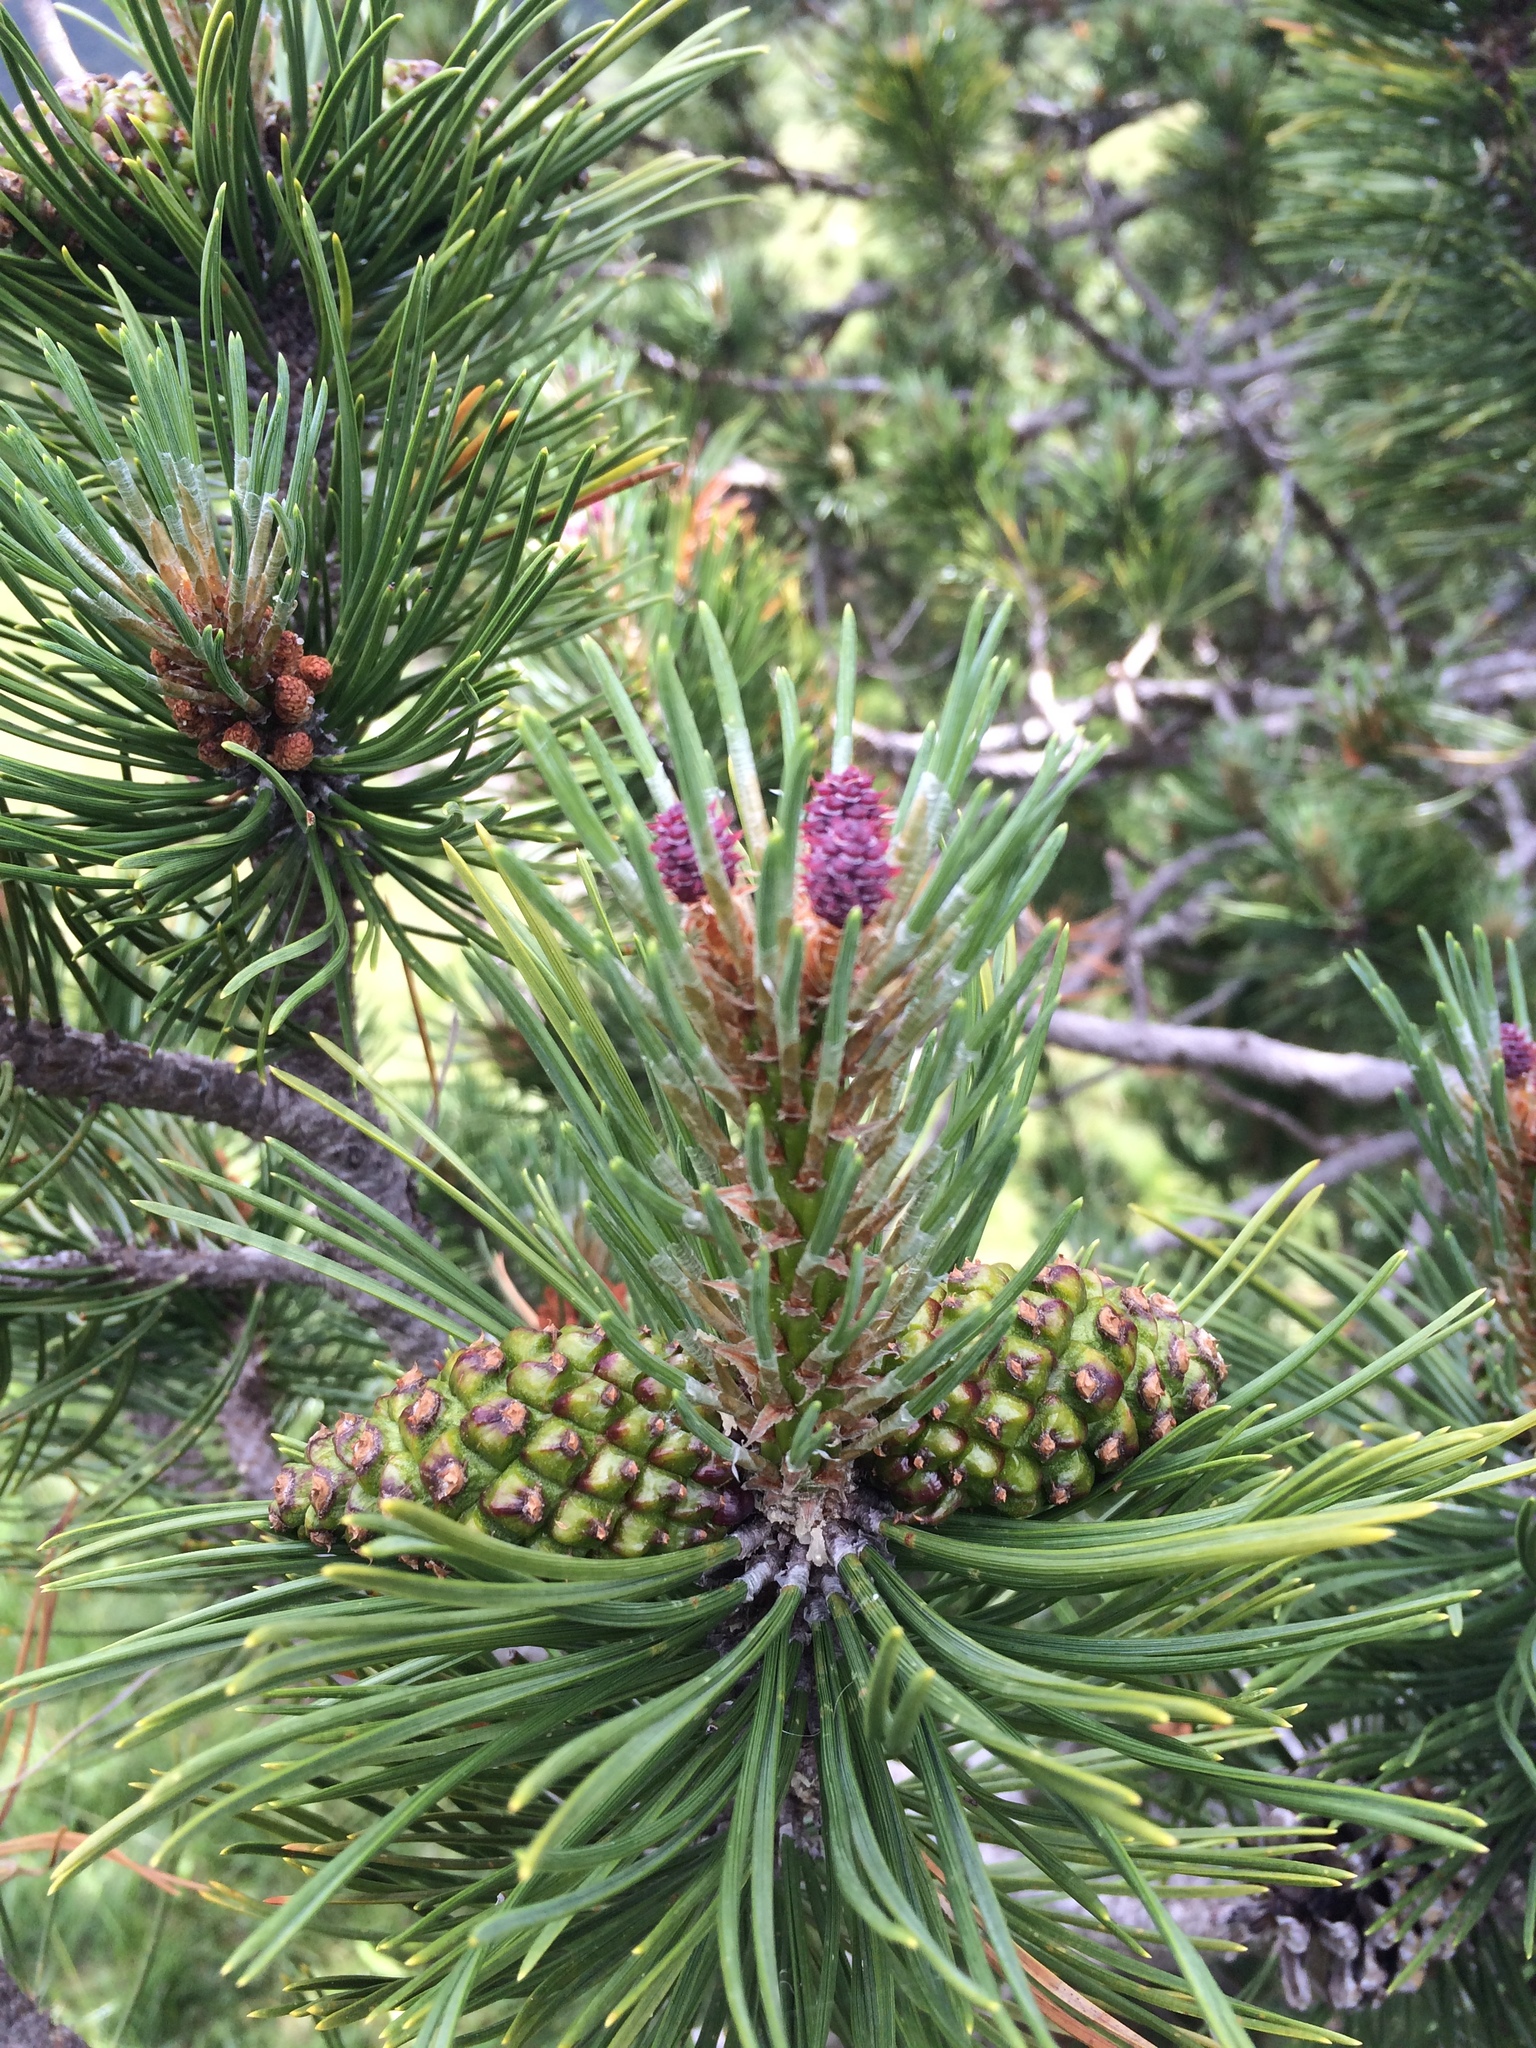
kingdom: Plantae
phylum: Tracheophyta
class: Pinopsida
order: Pinales
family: Pinaceae
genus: Pinus
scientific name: Pinus uncinata
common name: Mountain pine
